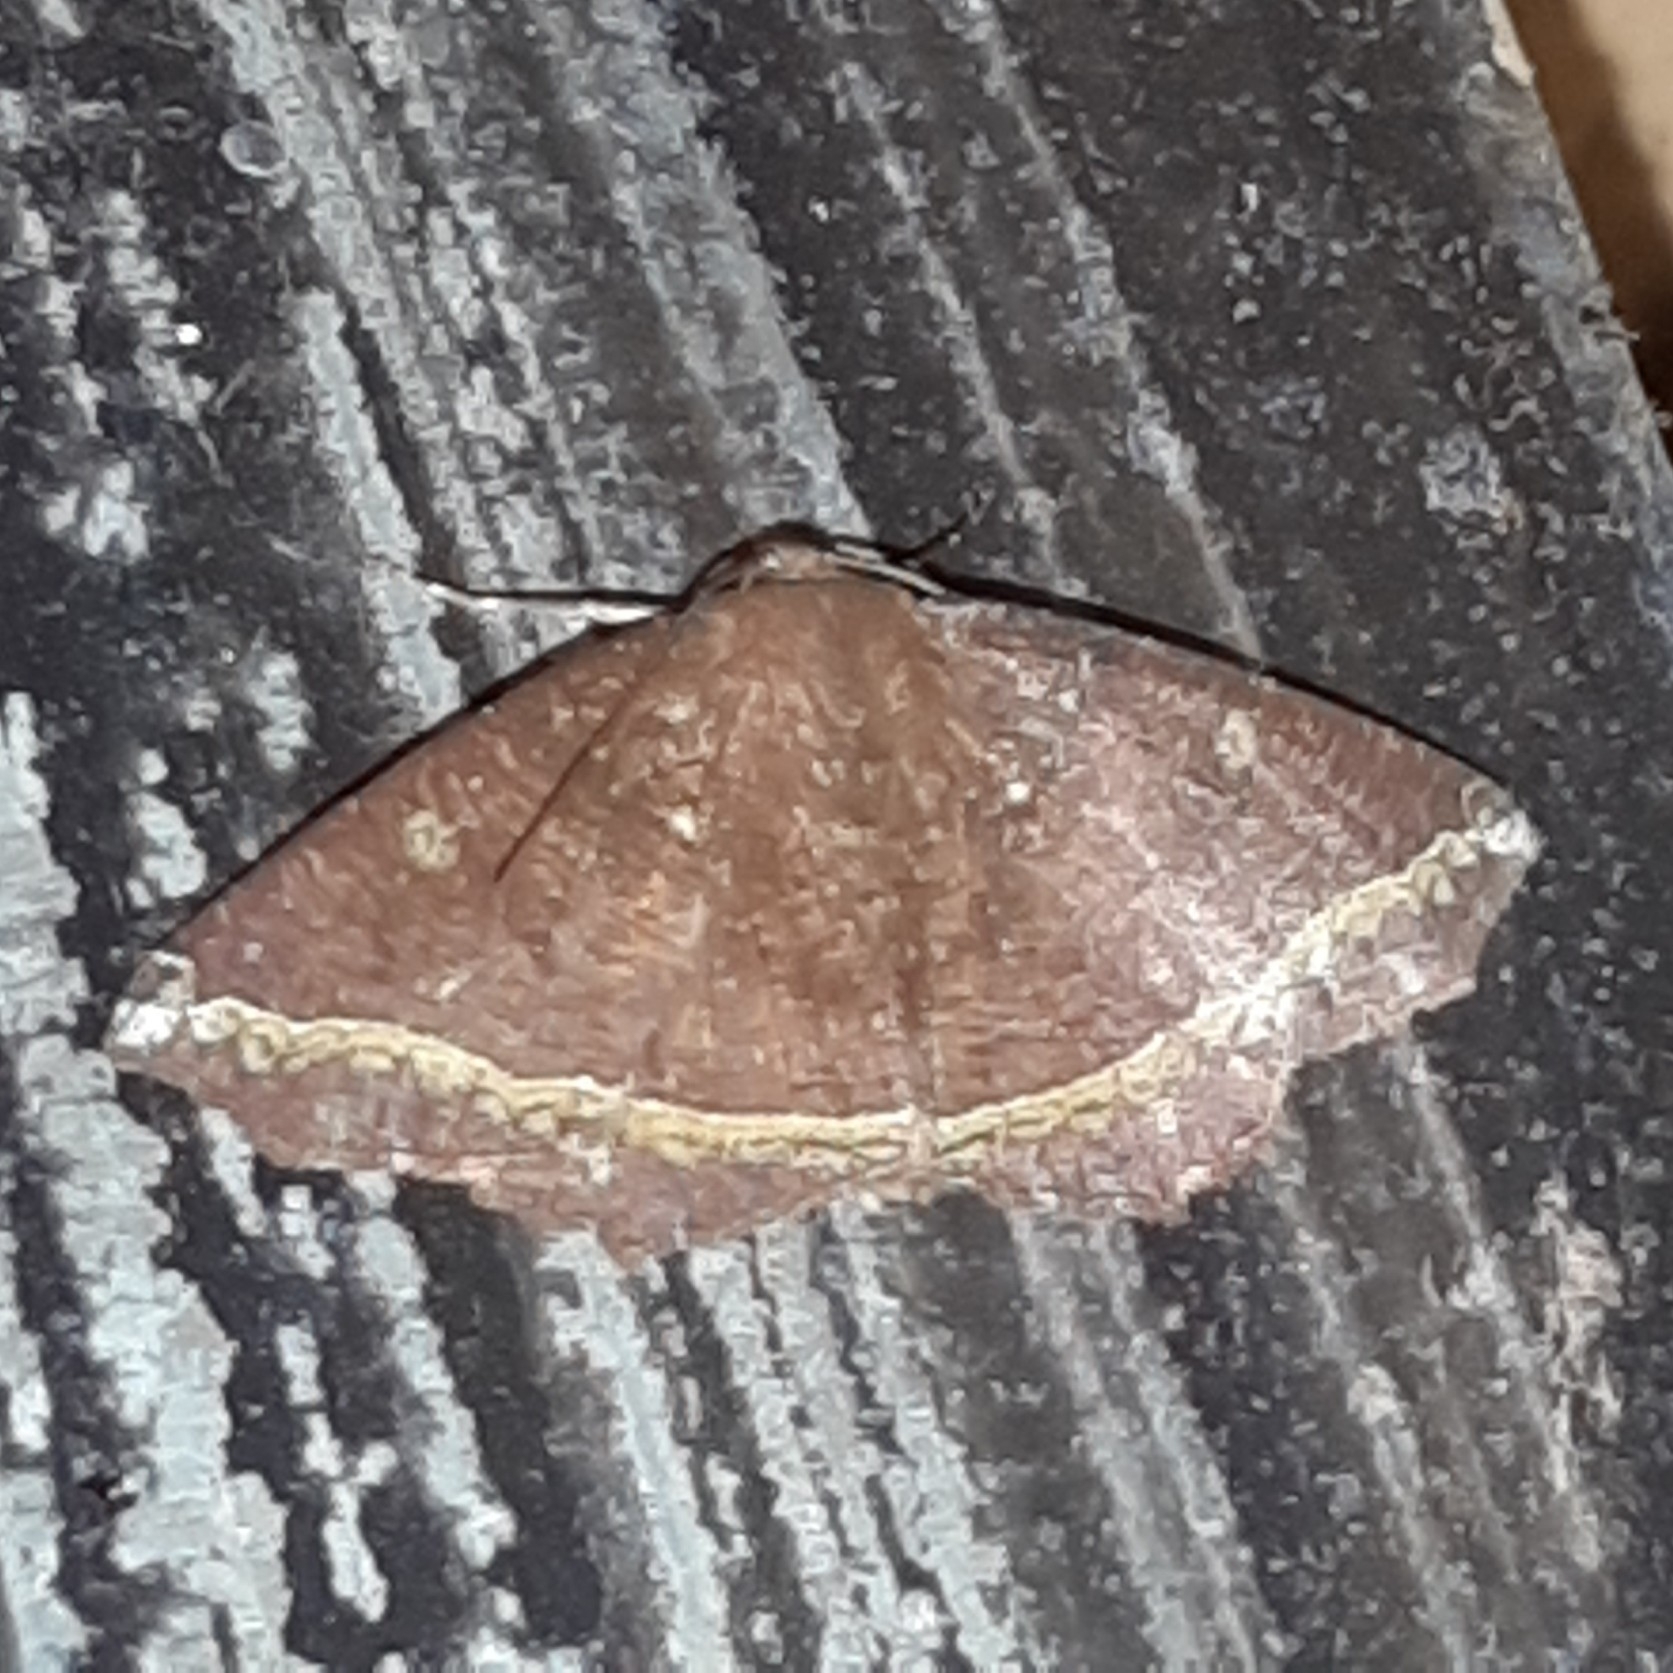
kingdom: Animalia
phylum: Arthropoda
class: Insecta
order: Lepidoptera
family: Geometridae
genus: Synnomos
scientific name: Synnomos firmamentaria
